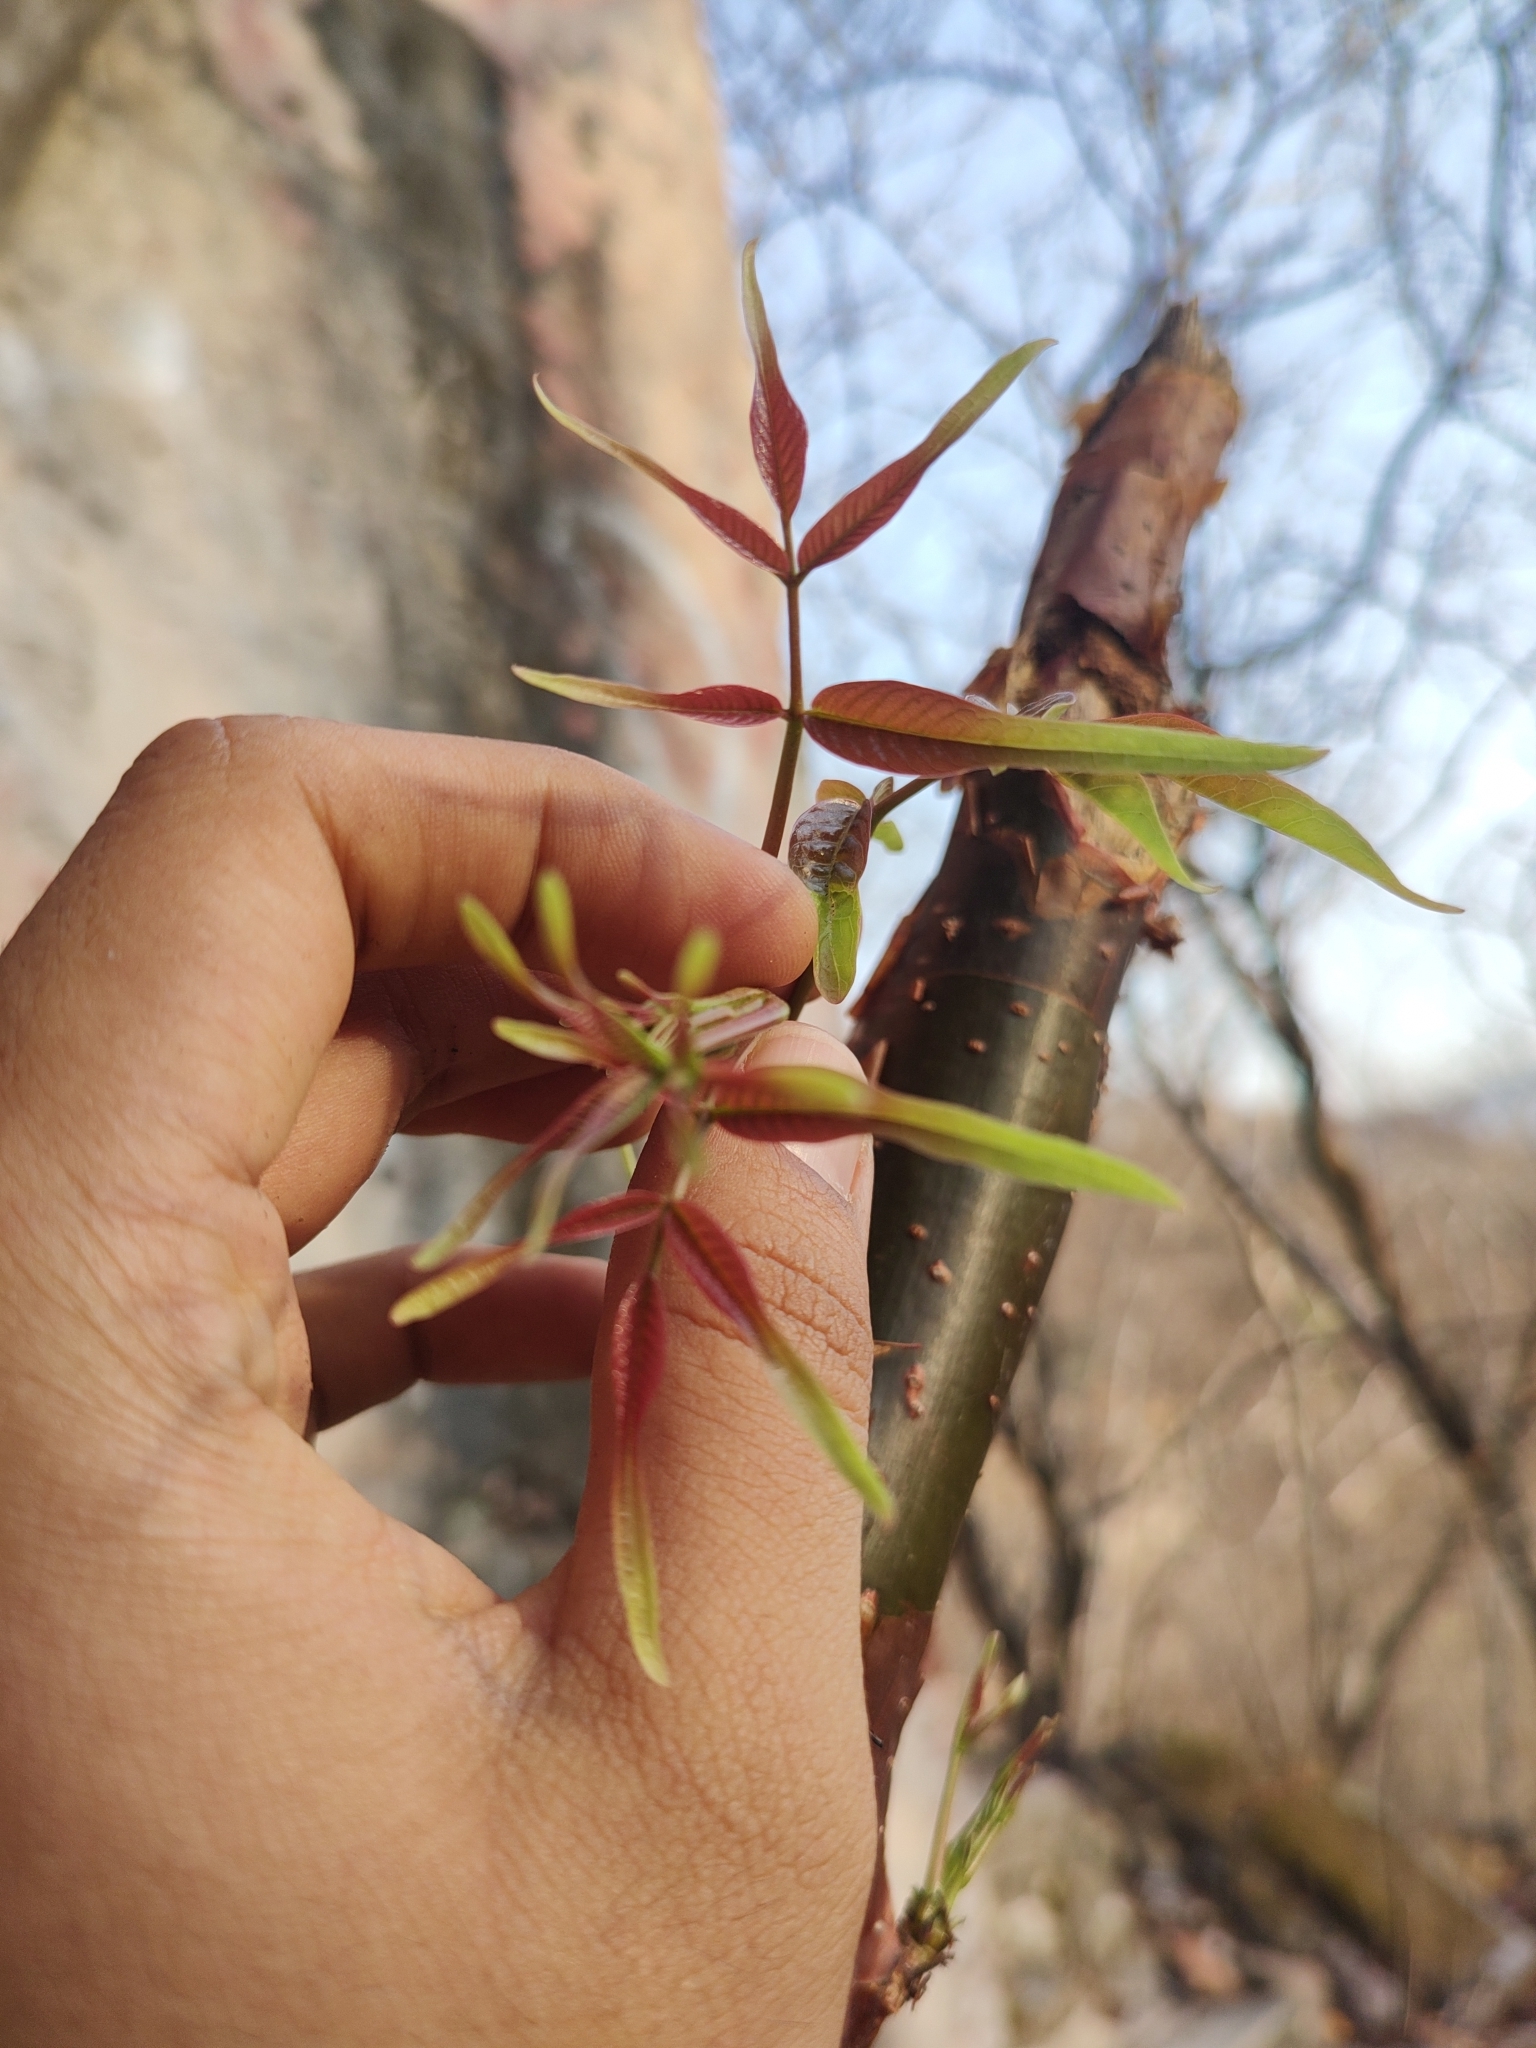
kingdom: Plantae
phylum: Tracheophyta
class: Magnoliopsida
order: Sapindales
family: Burseraceae
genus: Bursera
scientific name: Bursera roseana
